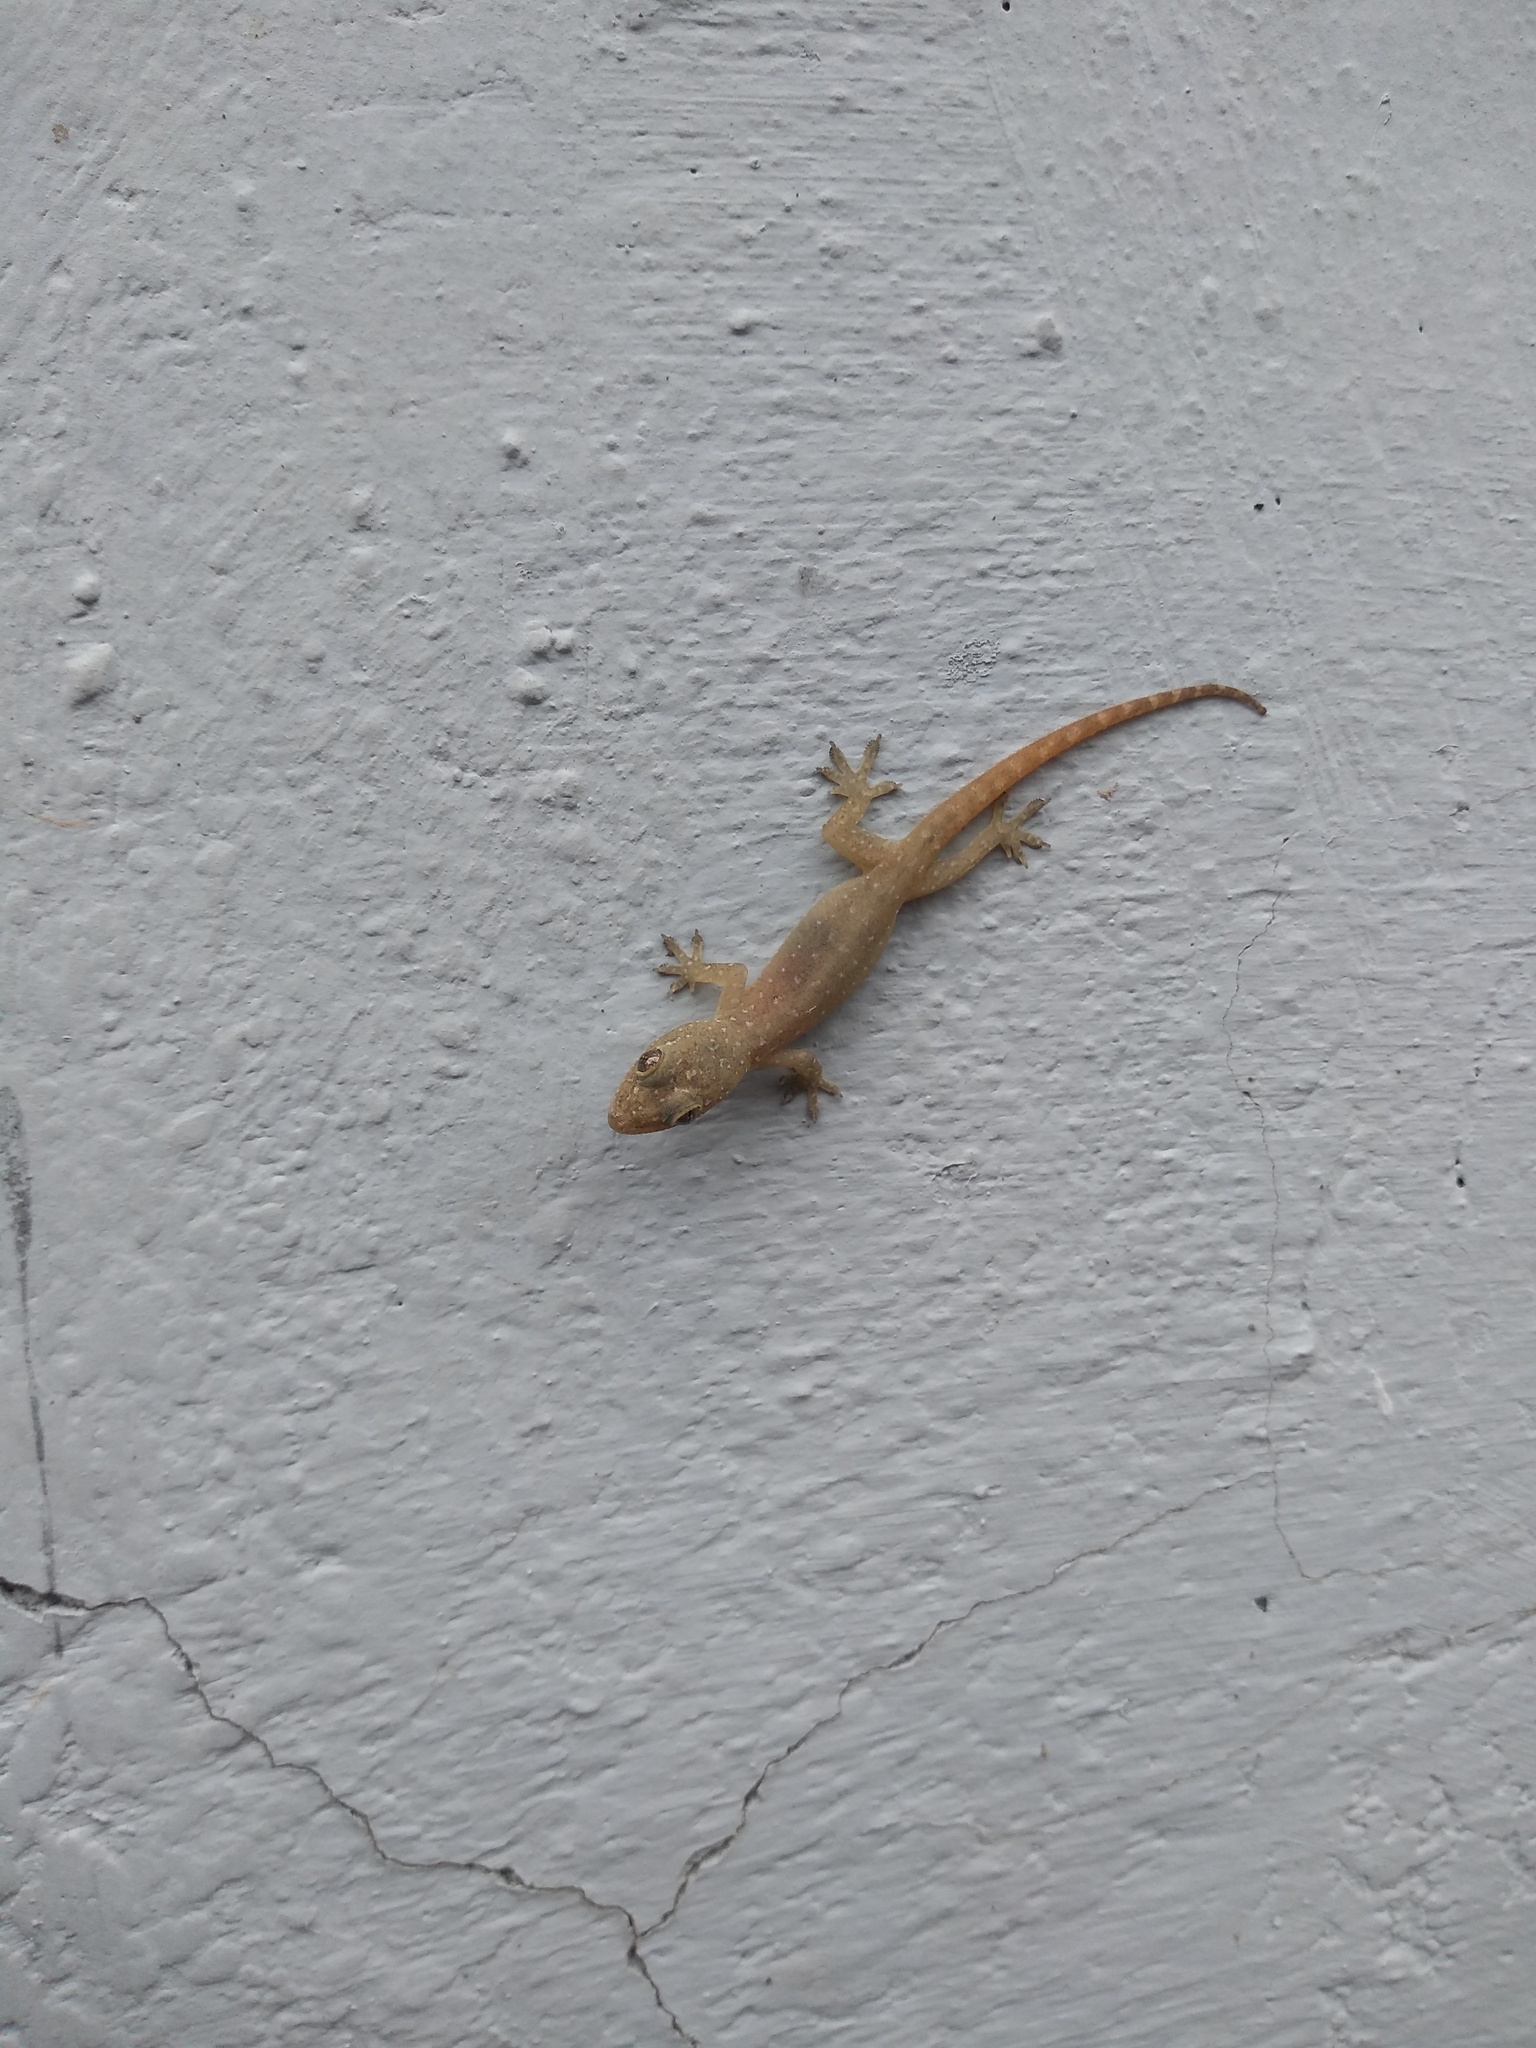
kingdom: Animalia
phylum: Chordata
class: Squamata
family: Gekkonidae
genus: Hemidactylus
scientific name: Hemidactylus garnotii
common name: Indo-pacific gecko
